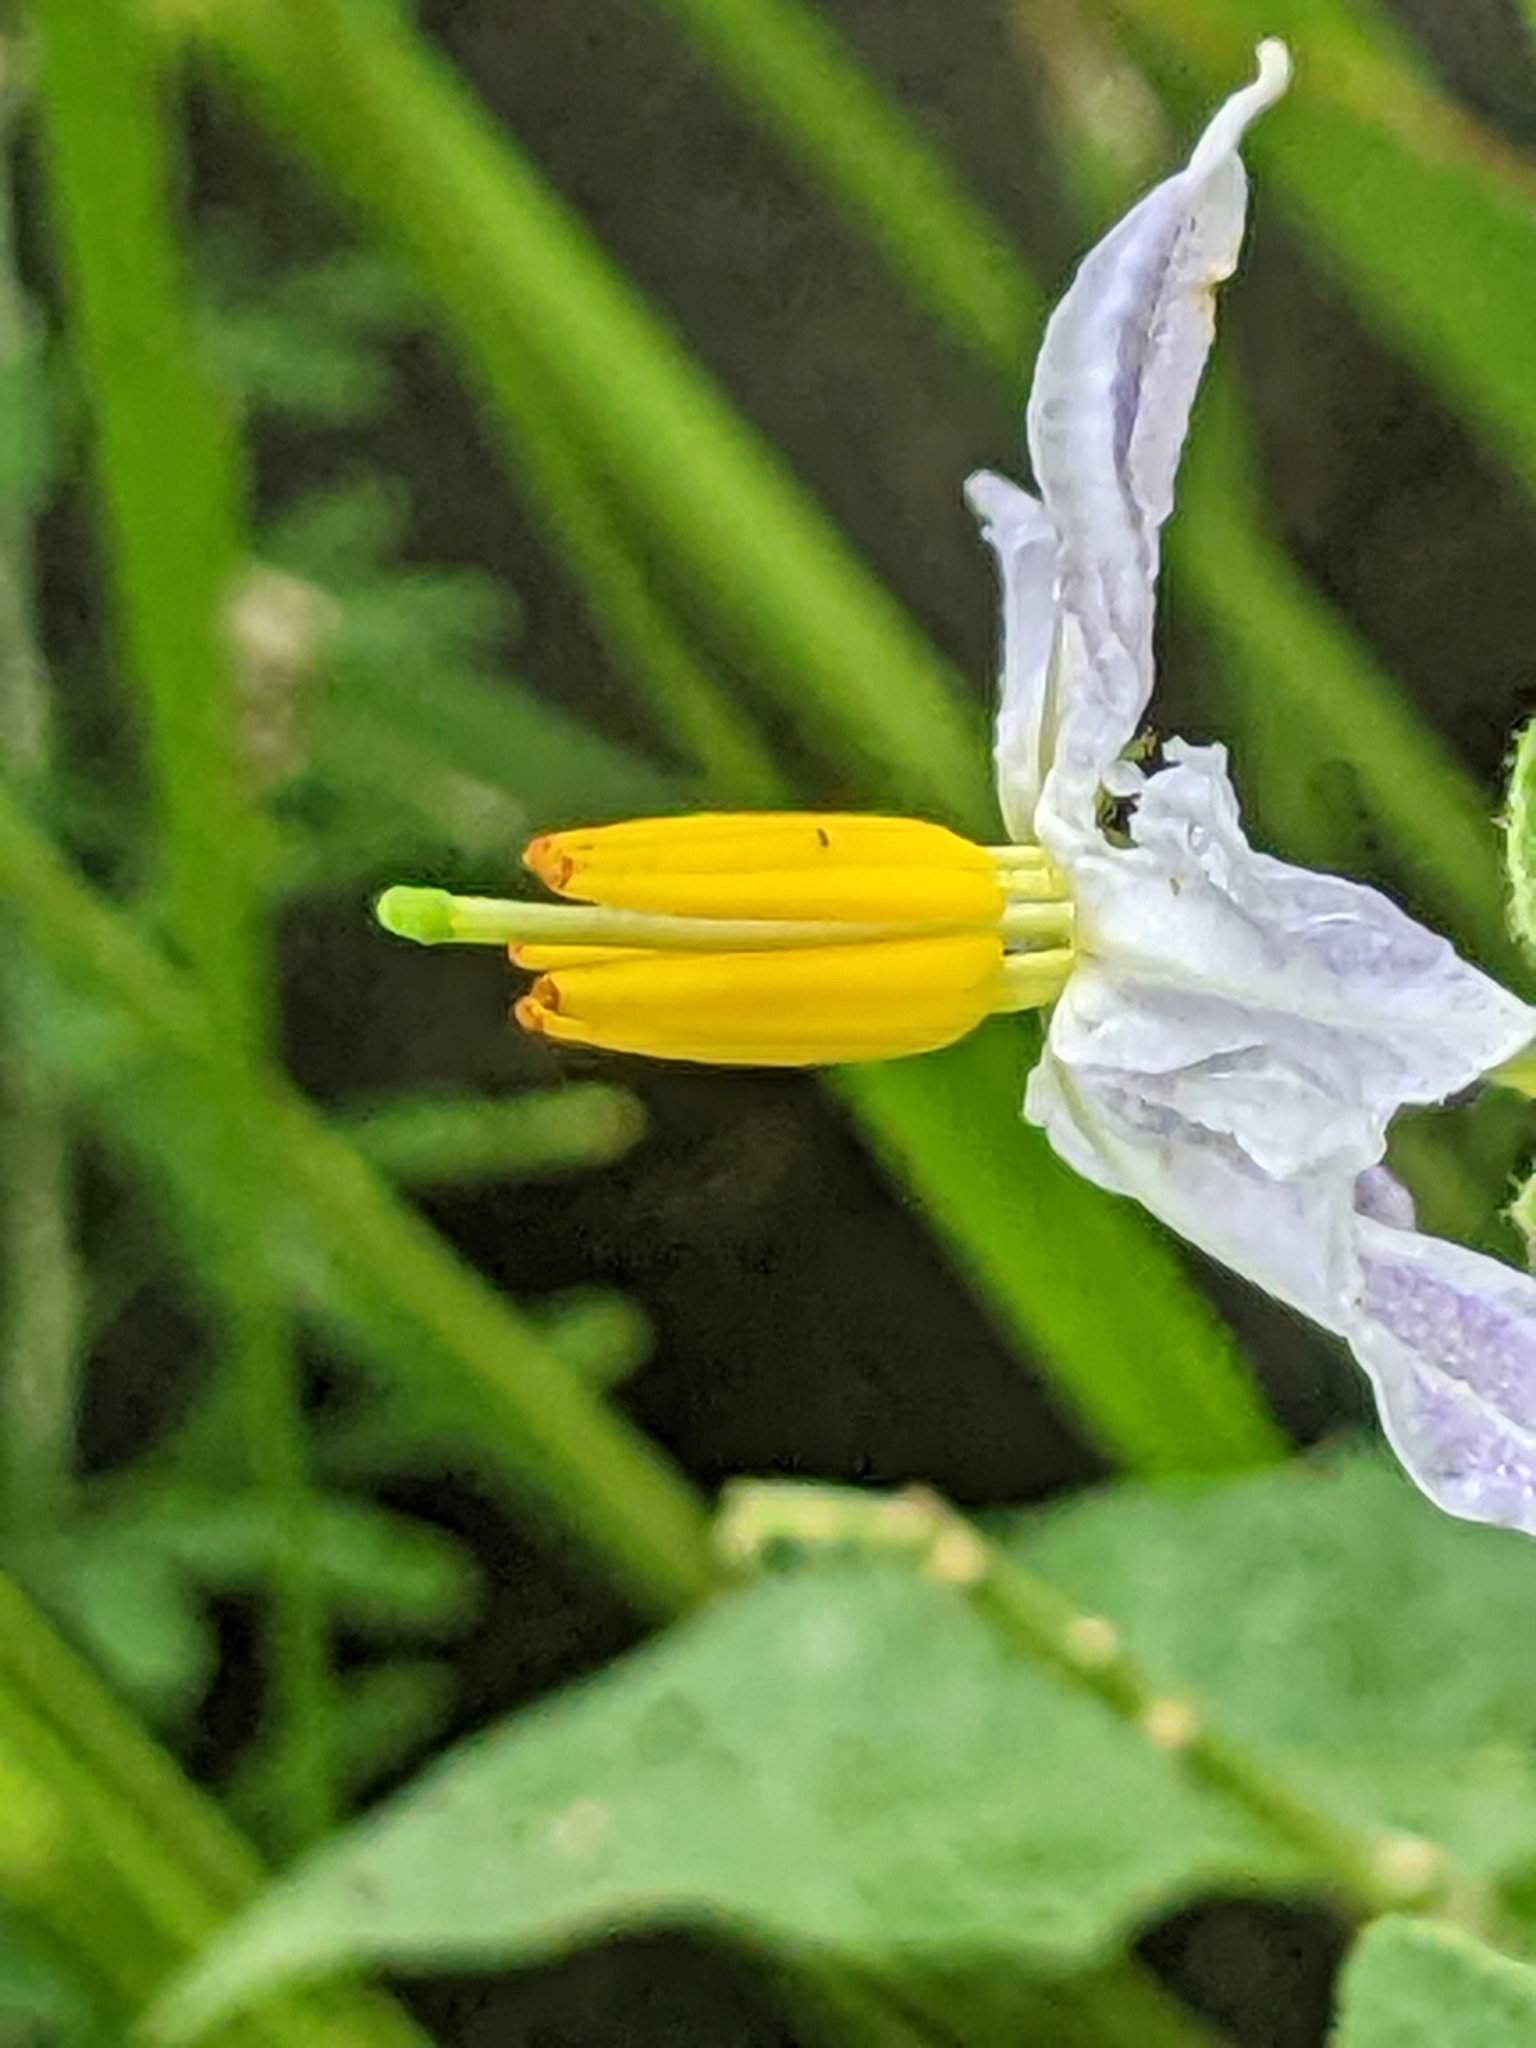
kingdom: Plantae
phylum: Tracheophyta
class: Magnoliopsida
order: Solanales
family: Solanaceae
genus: Solanum
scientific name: Solanum carolinense
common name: Horse-nettle
